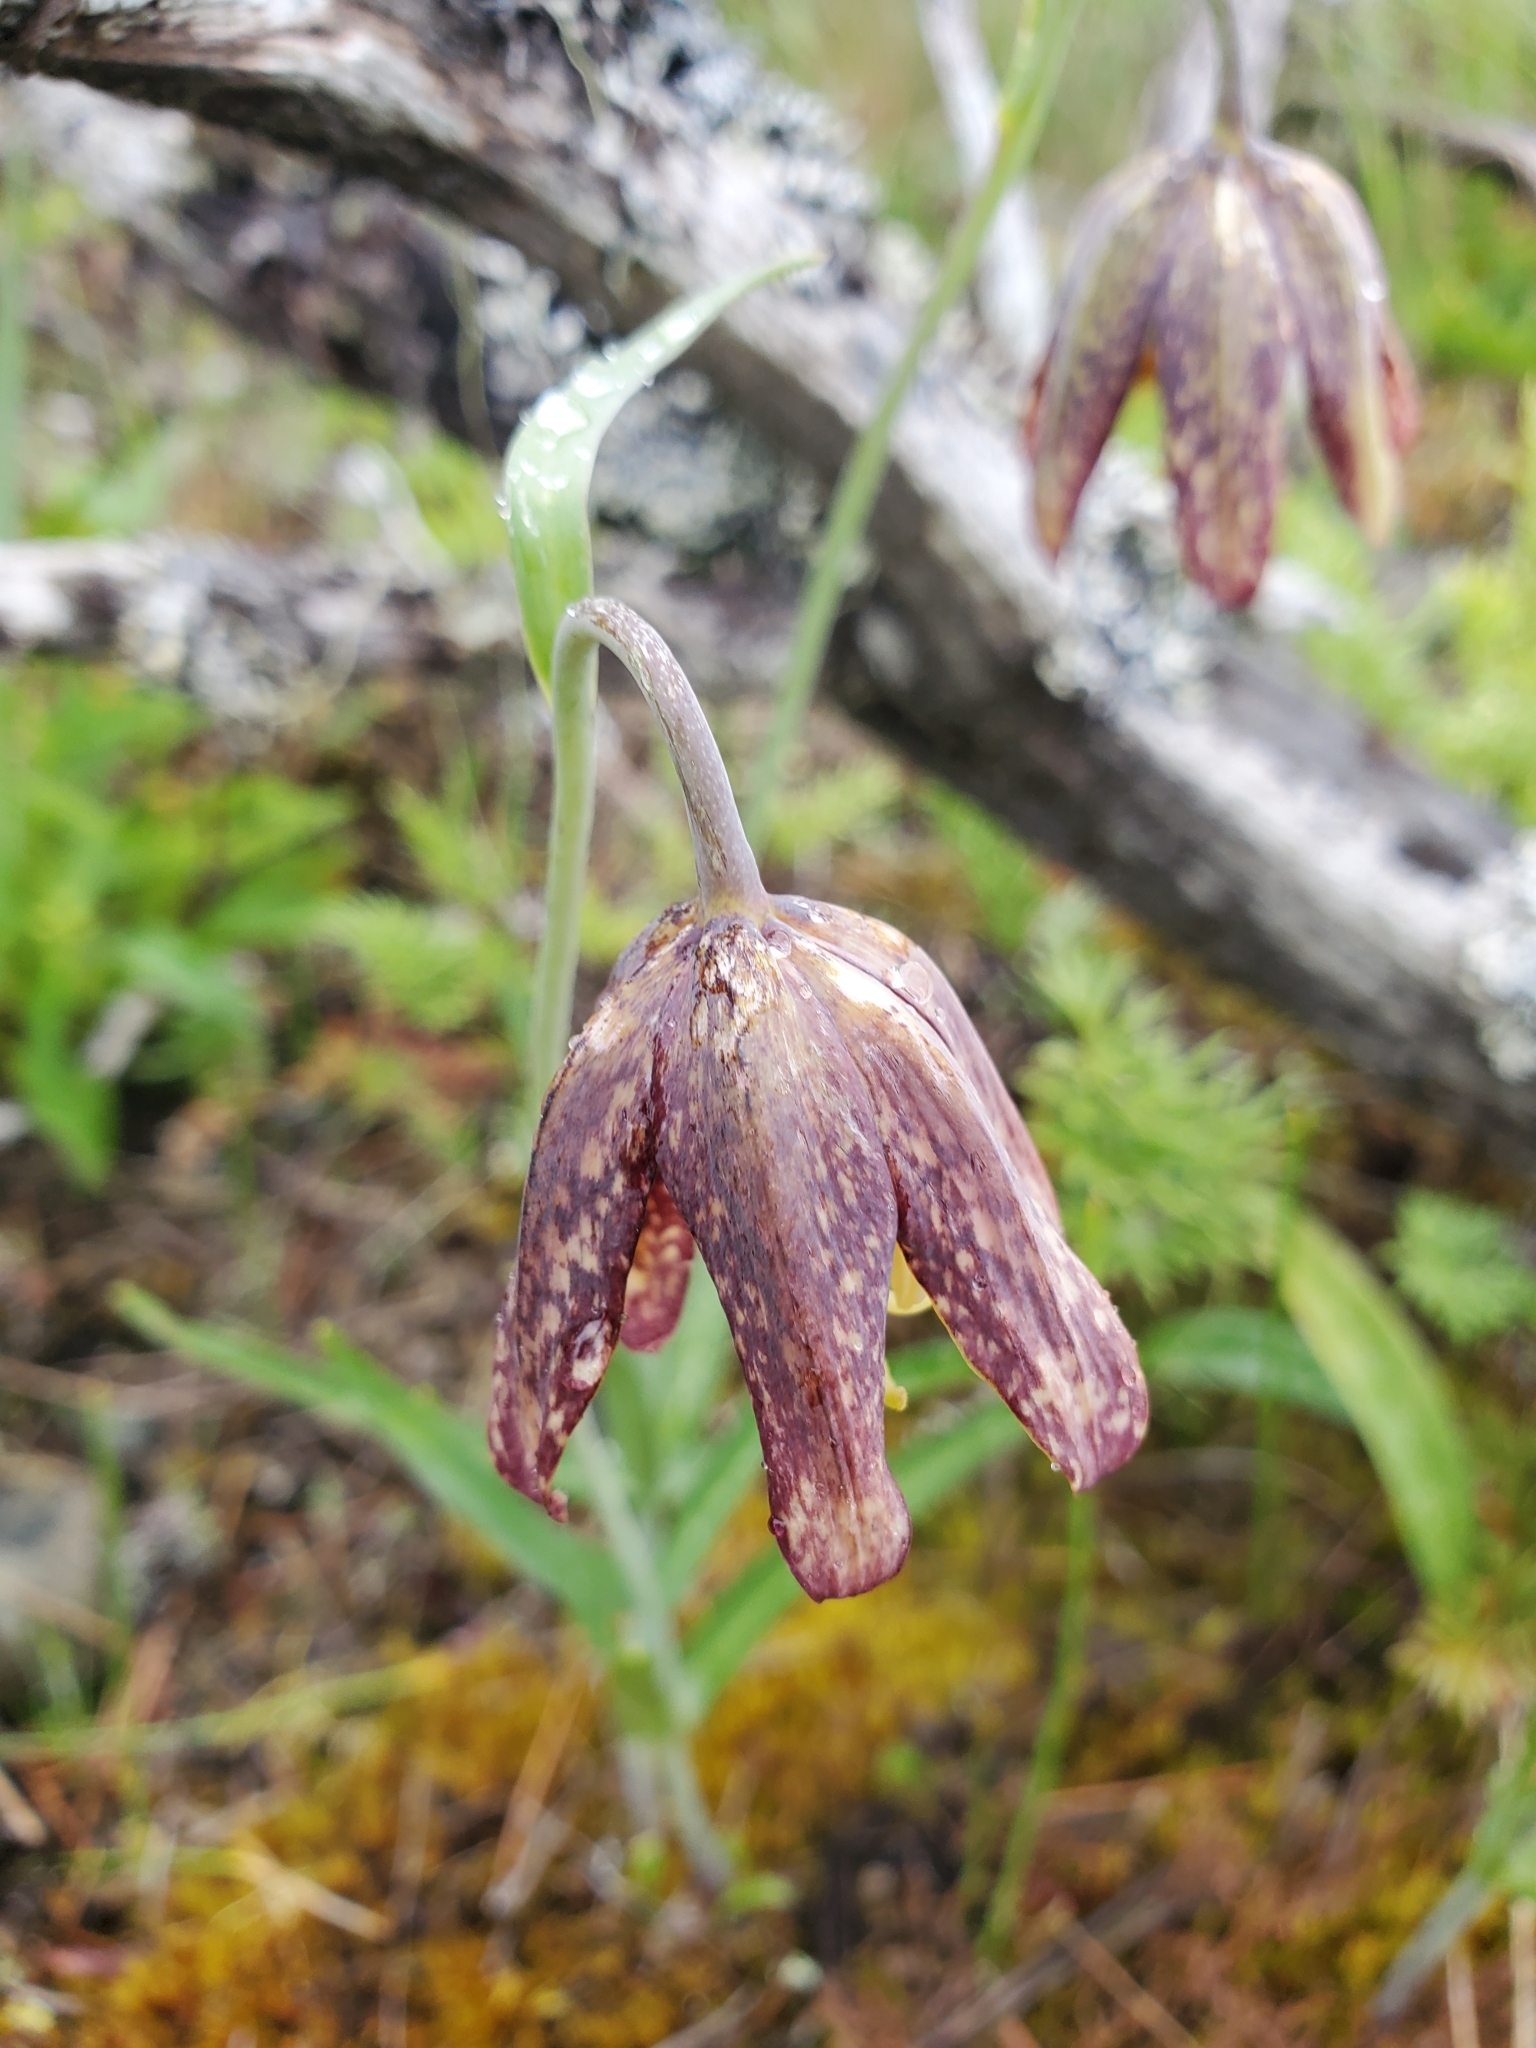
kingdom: Plantae
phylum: Tracheophyta
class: Liliopsida
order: Liliales
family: Liliaceae
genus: Fritillaria
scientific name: Fritillaria affinis
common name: Ojai fritillary
